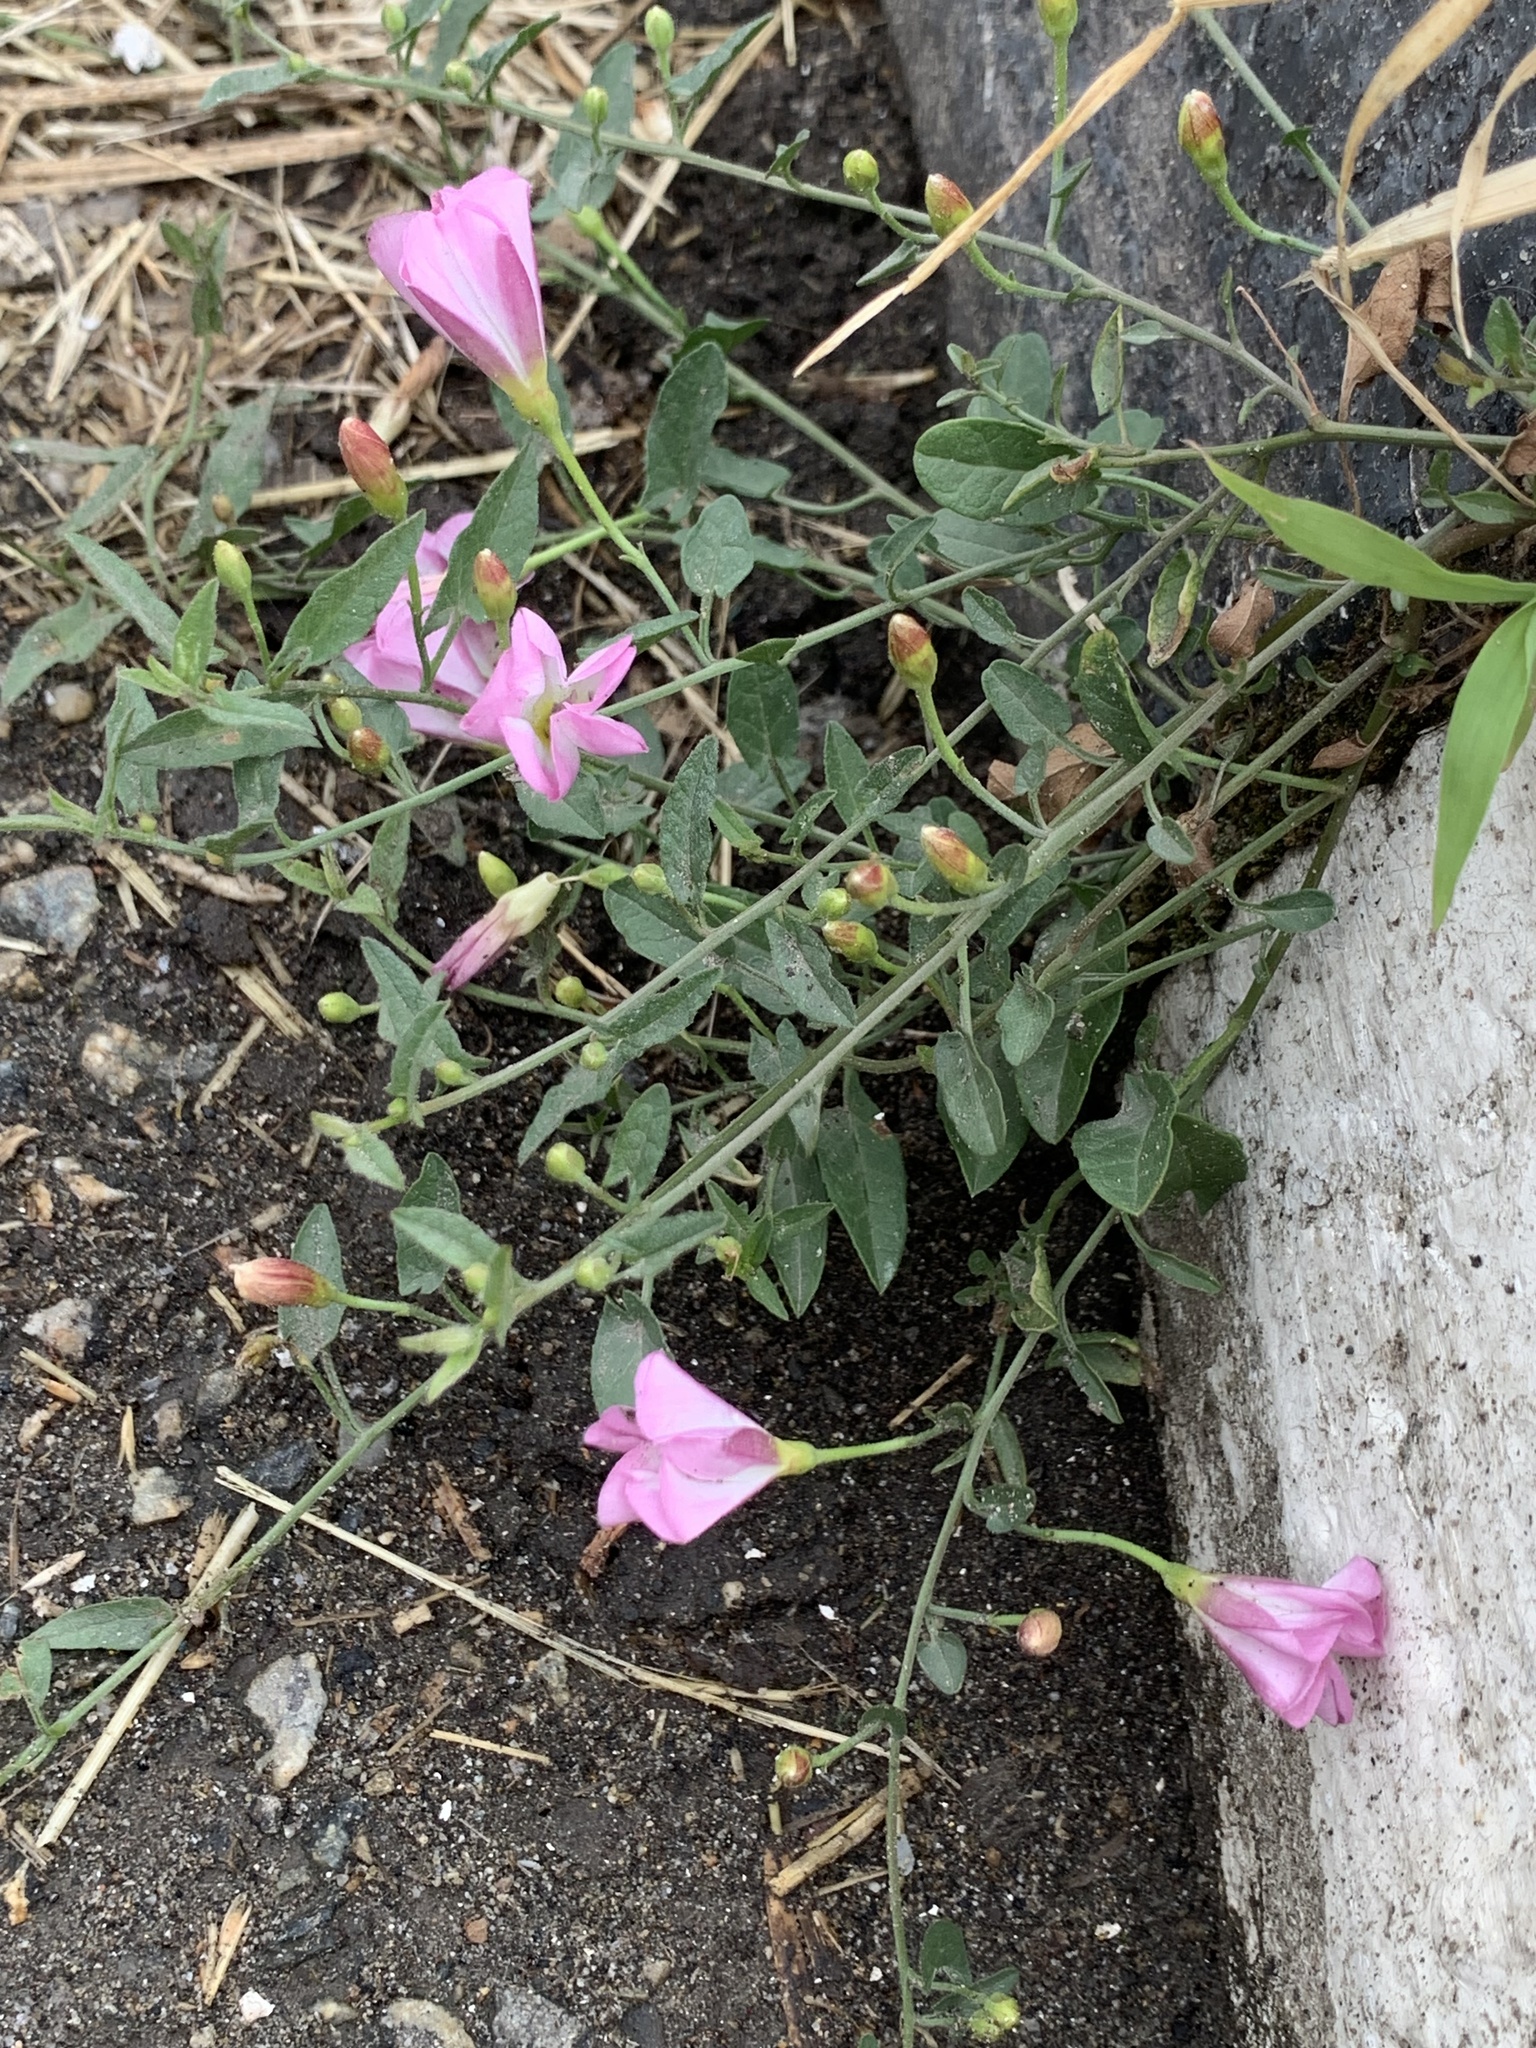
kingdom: Plantae
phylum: Tracheophyta
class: Magnoliopsida
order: Solanales
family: Convolvulaceae
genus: Convolvulus
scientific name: Convolvulus arvensis
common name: Field bindweed
